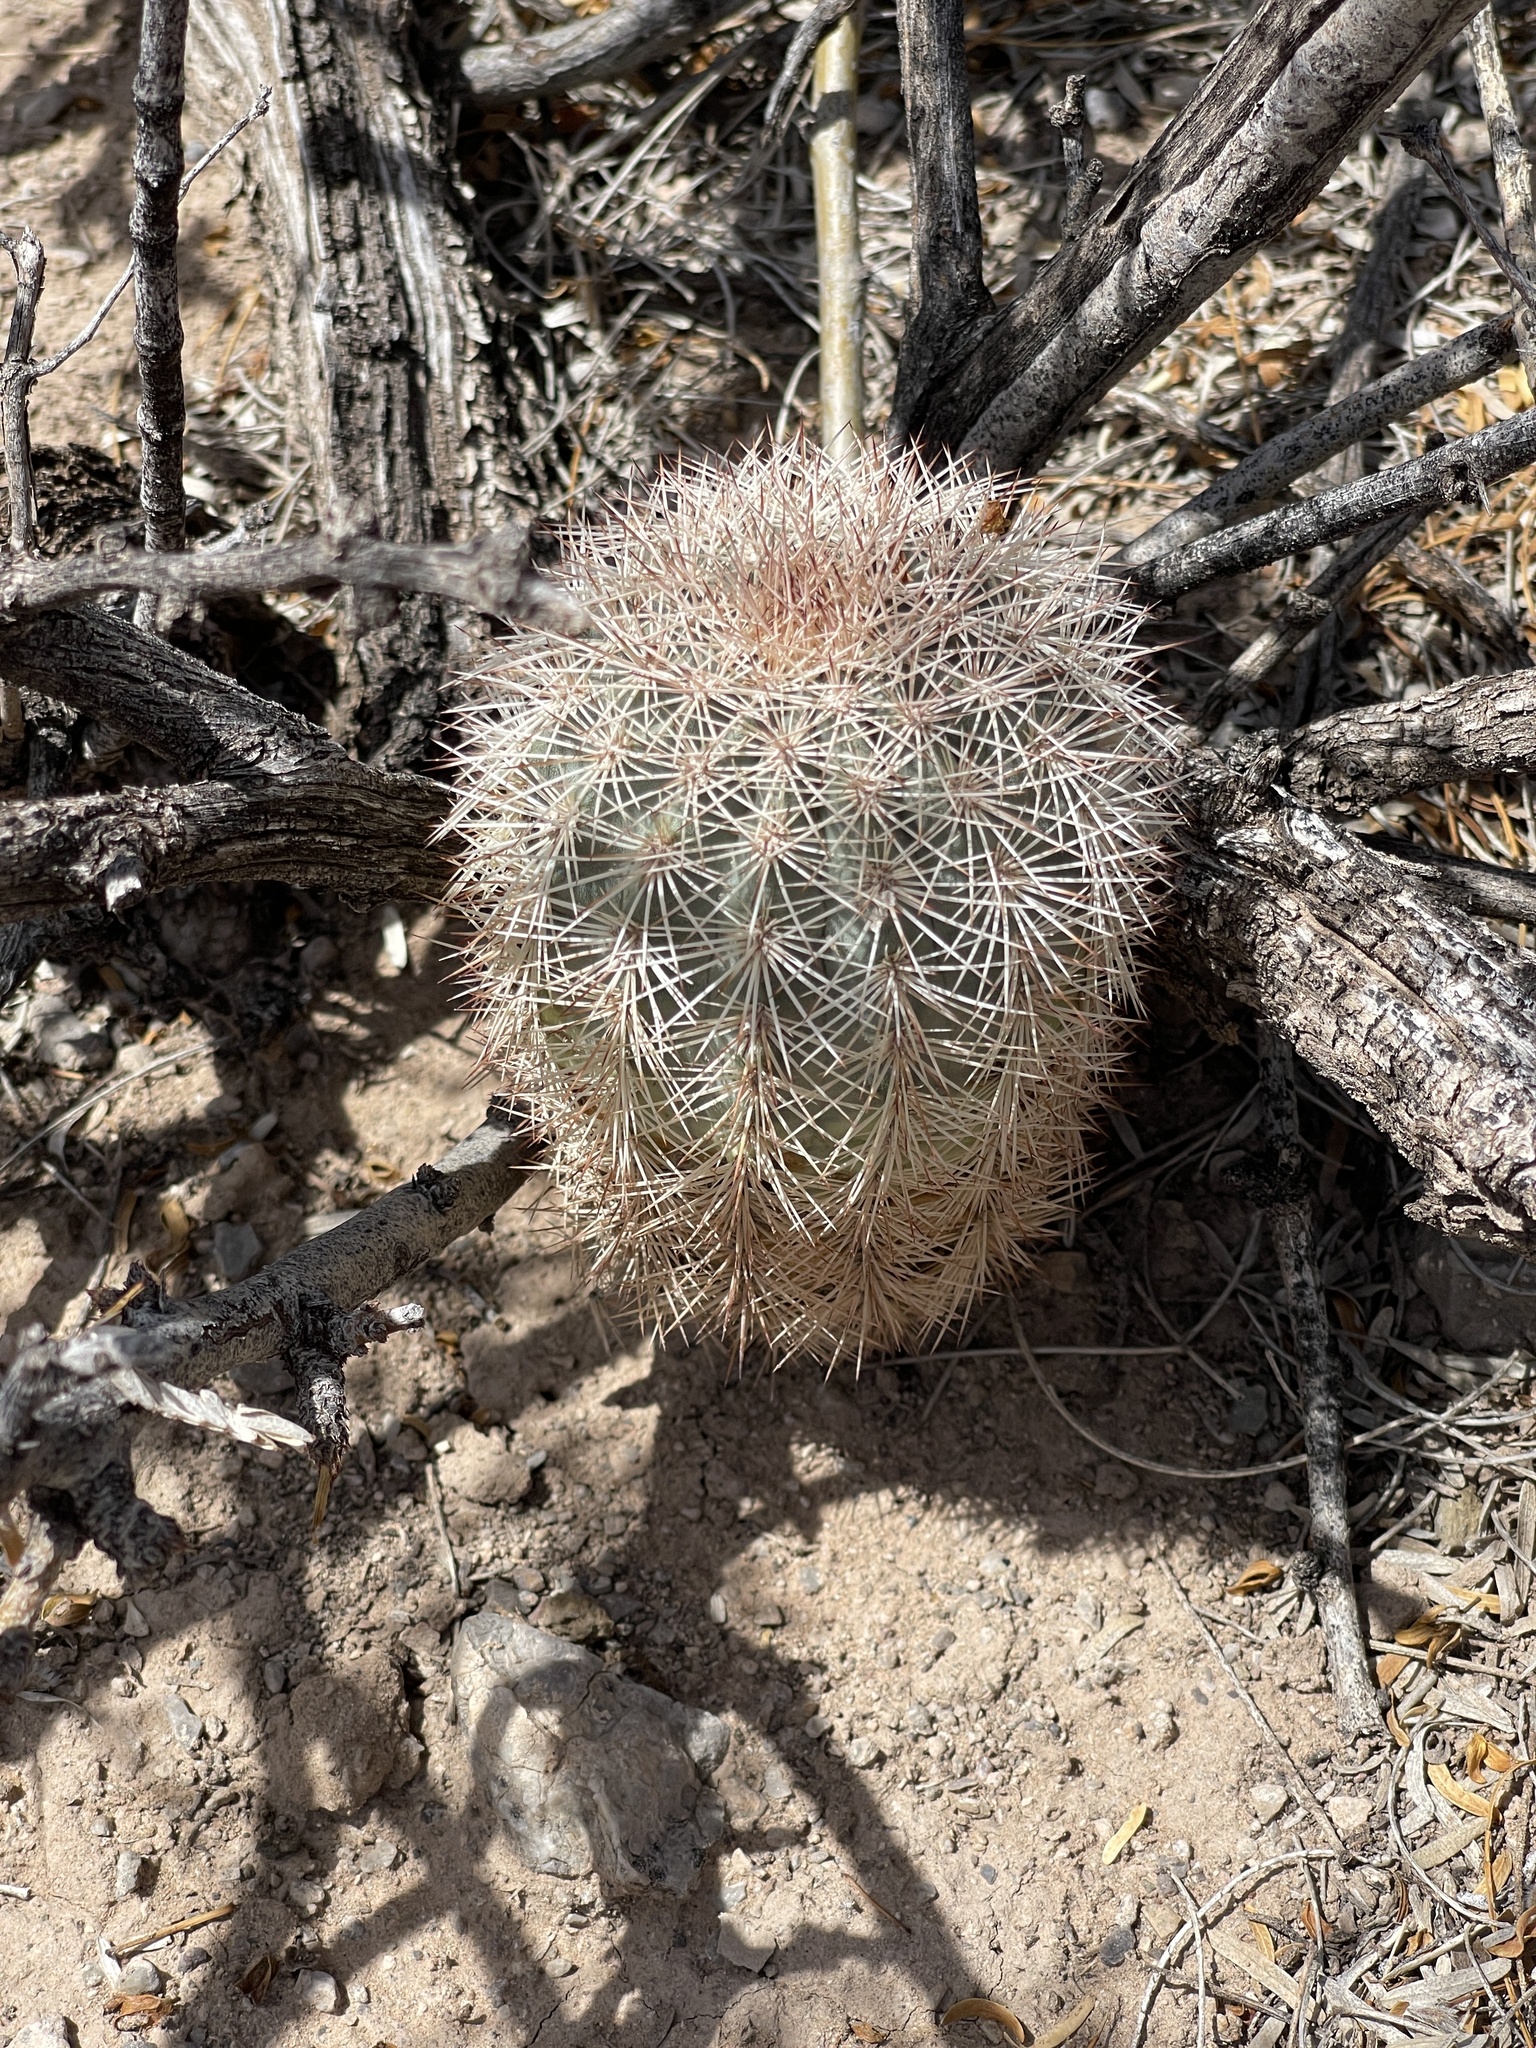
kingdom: Plantae
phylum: Tracheophyta
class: Magnoliopsida
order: Caryophyllales
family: Cactaceae
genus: Echinocereus
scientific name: Echinocereus dasyacanthus
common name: Spiny hedgehog cactus
